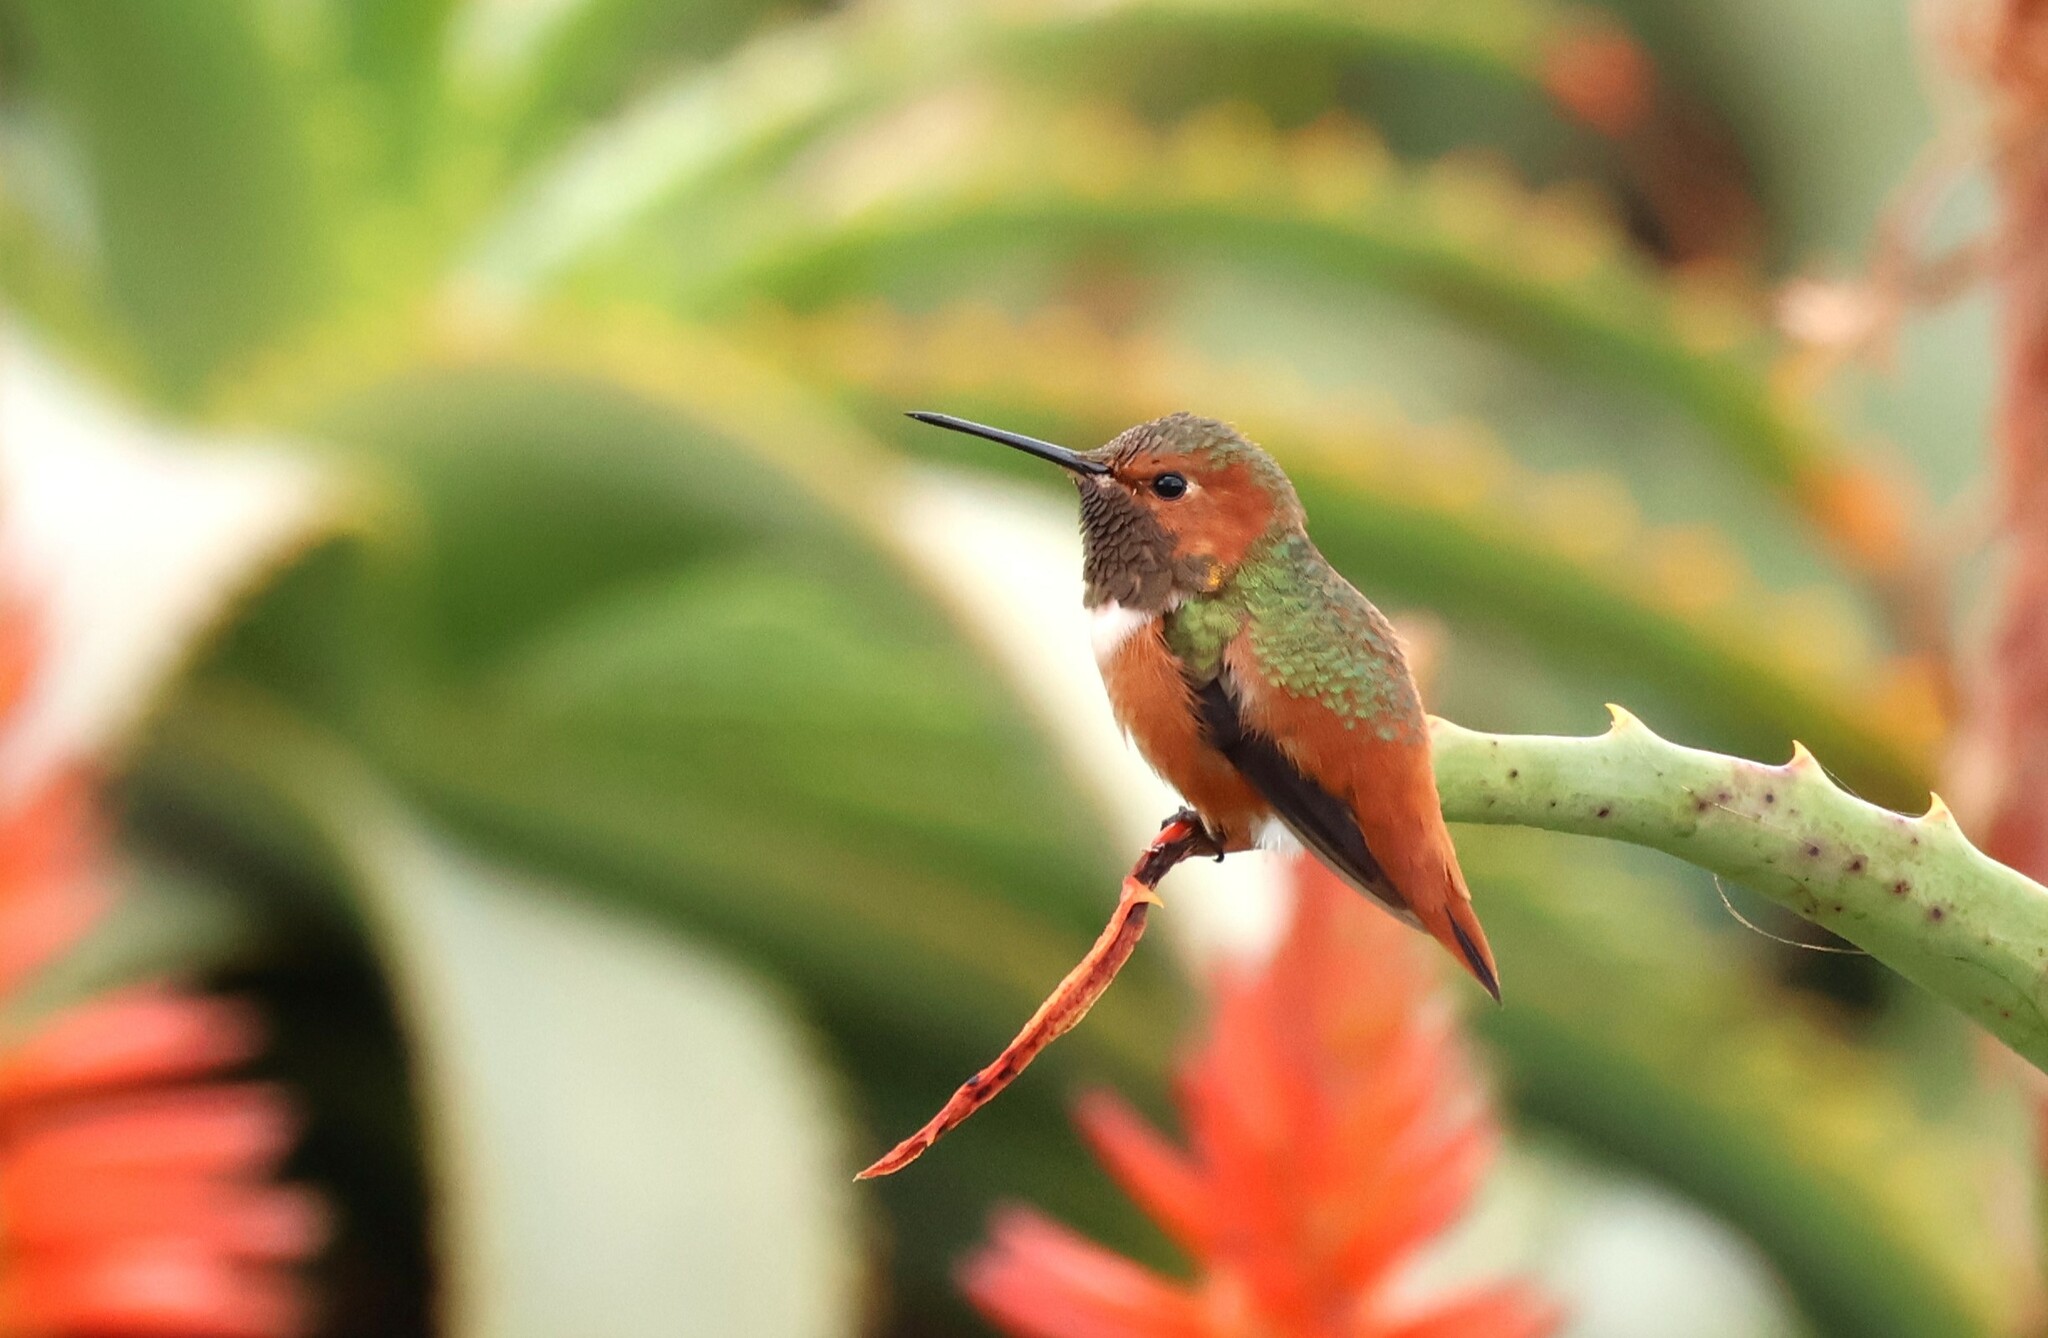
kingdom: Animalia
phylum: Chordata
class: Aves
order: Apodiformes
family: Trochilidae
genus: Selasphorus
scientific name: Selasphorus sasin
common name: Allen's hummingbird
